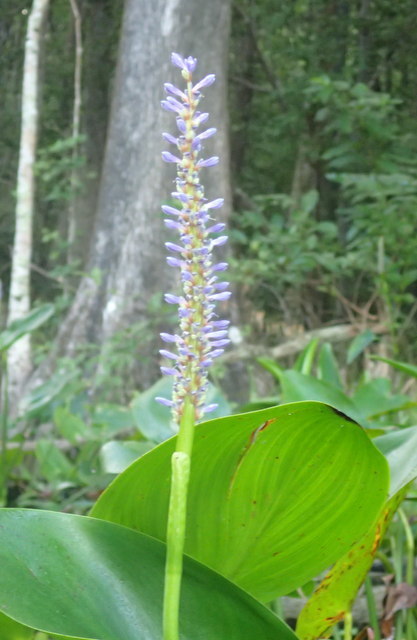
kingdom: Plantae
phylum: Tracheophyta
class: Liliopsida
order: Commelinales
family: Pontederiaceae
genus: Pontederia
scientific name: Pontederia cordata
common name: Pickerelweed
